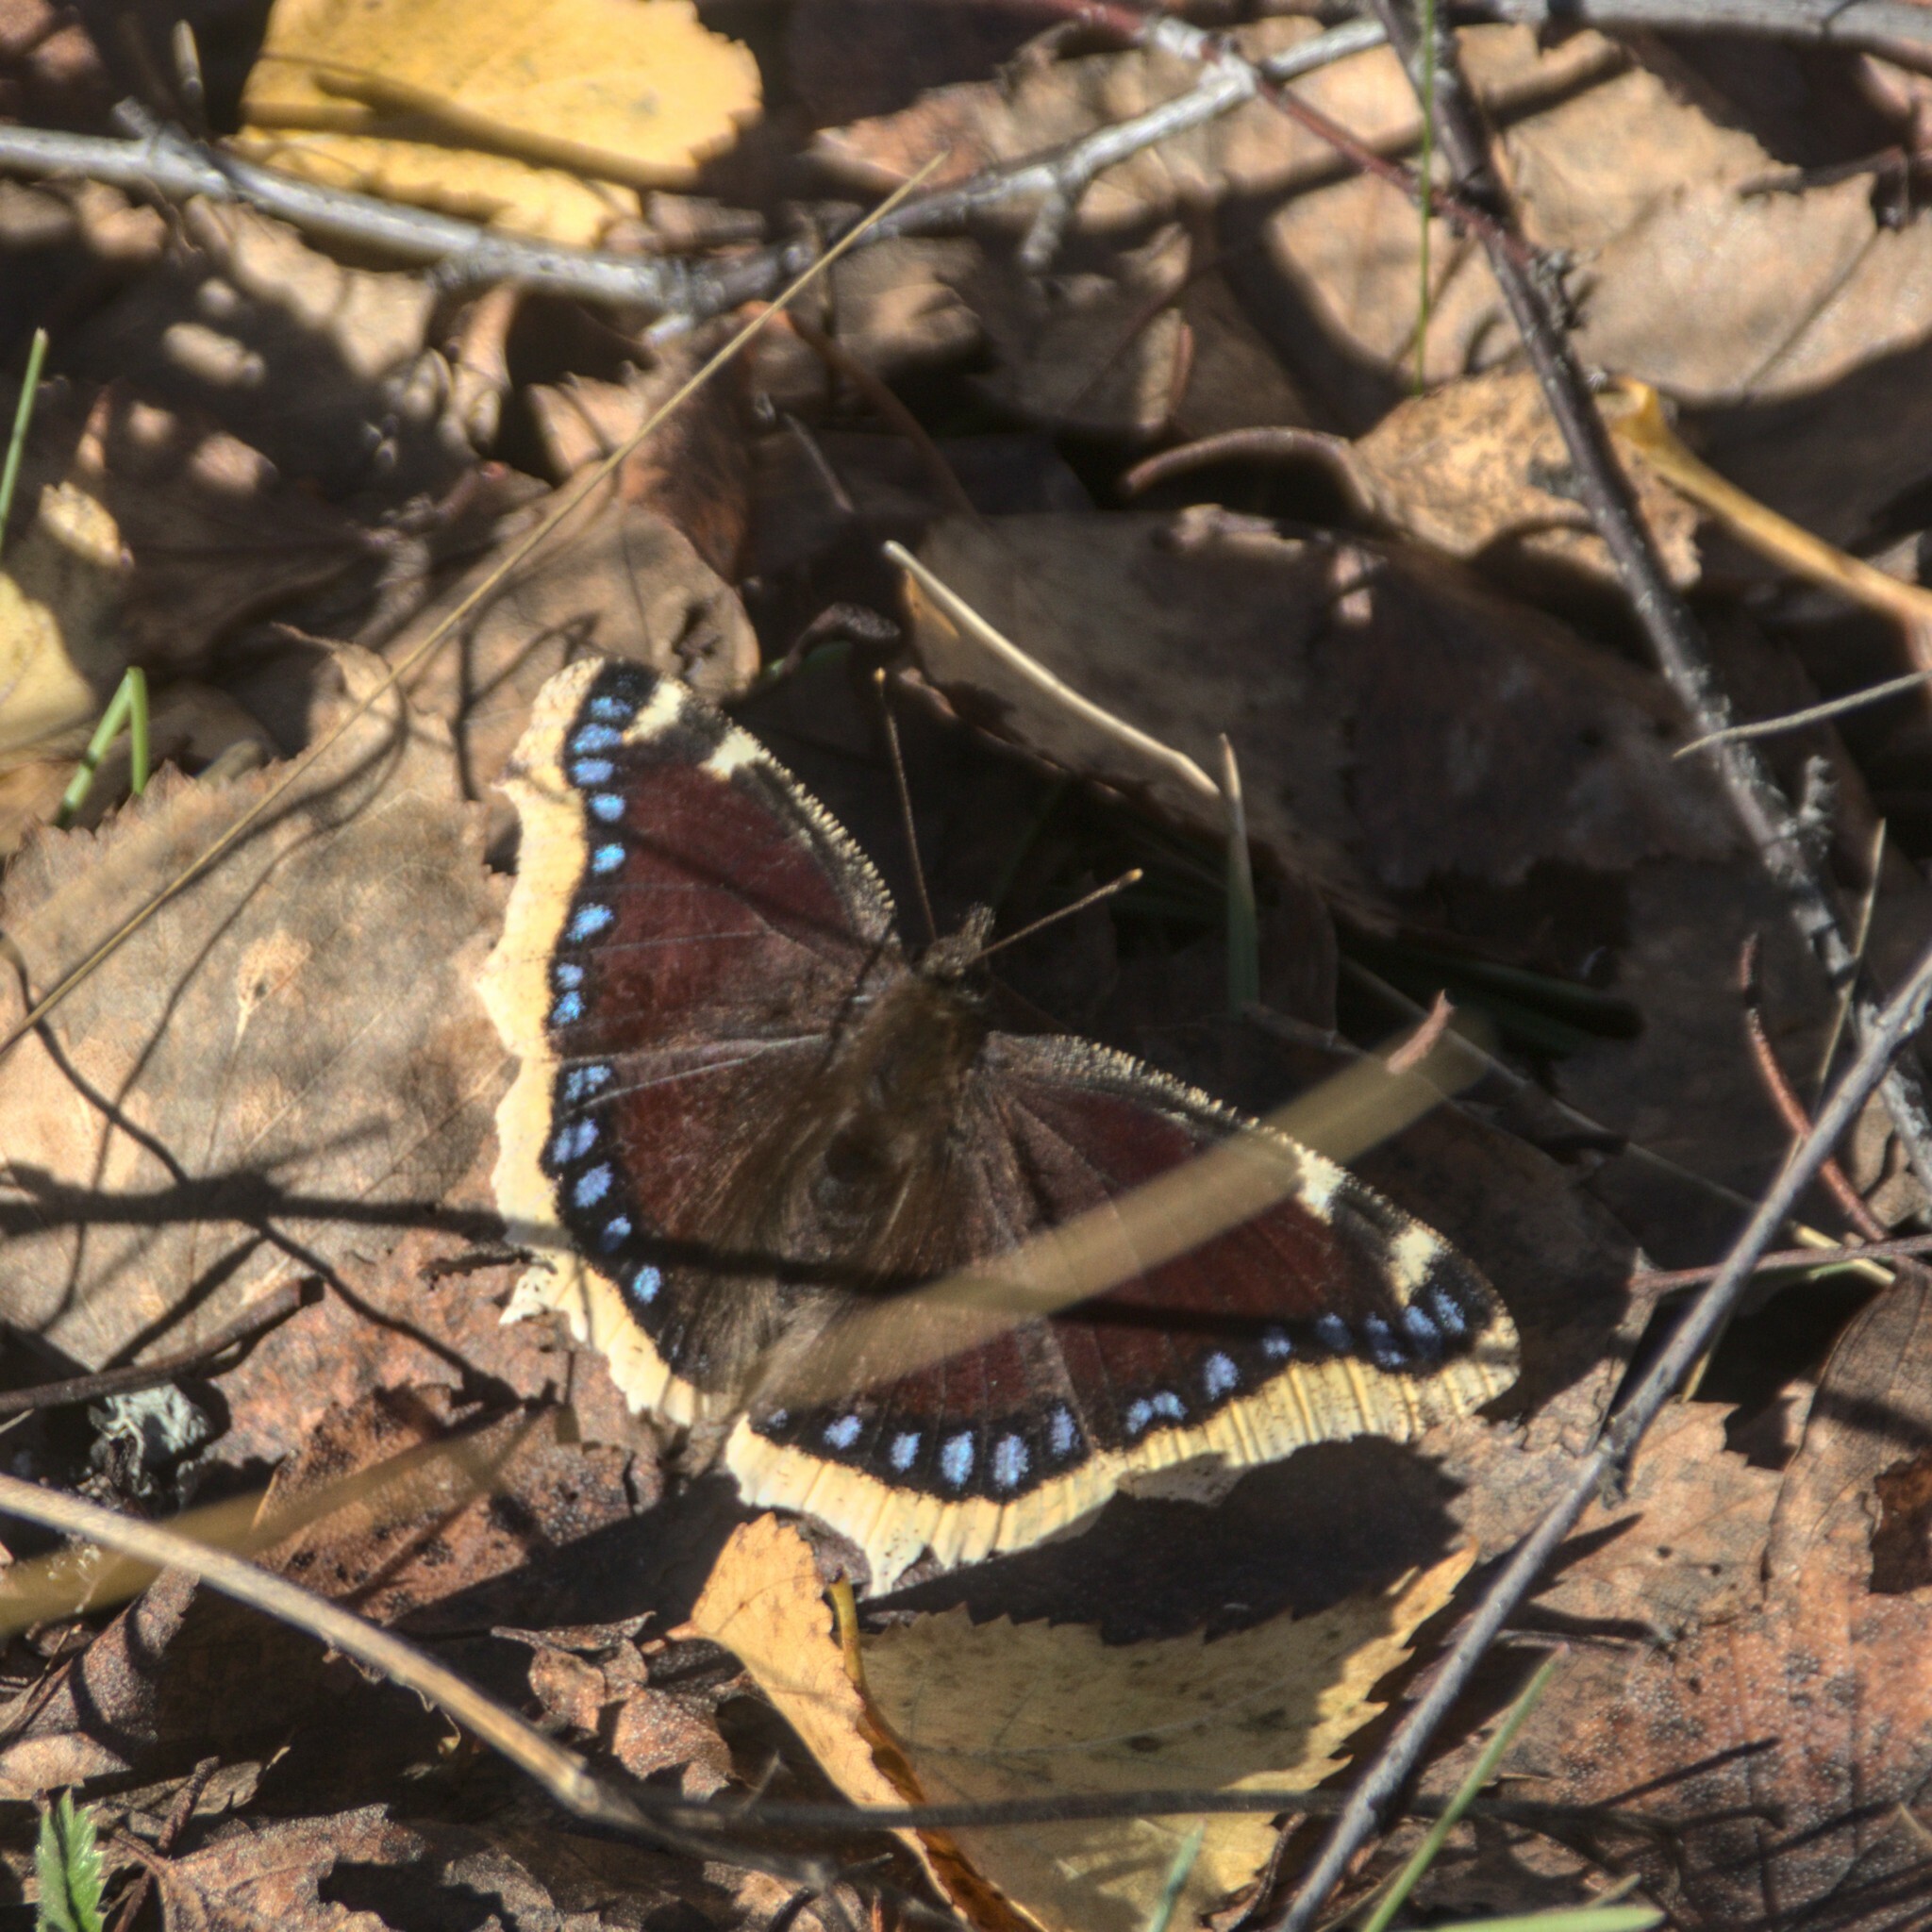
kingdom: Animalia
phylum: Arthropoda
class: Insecta
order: Lepidoptera
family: Nymphalidae
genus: Nymphalis
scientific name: Nymphalis antiopa
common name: Camberwell beauty
